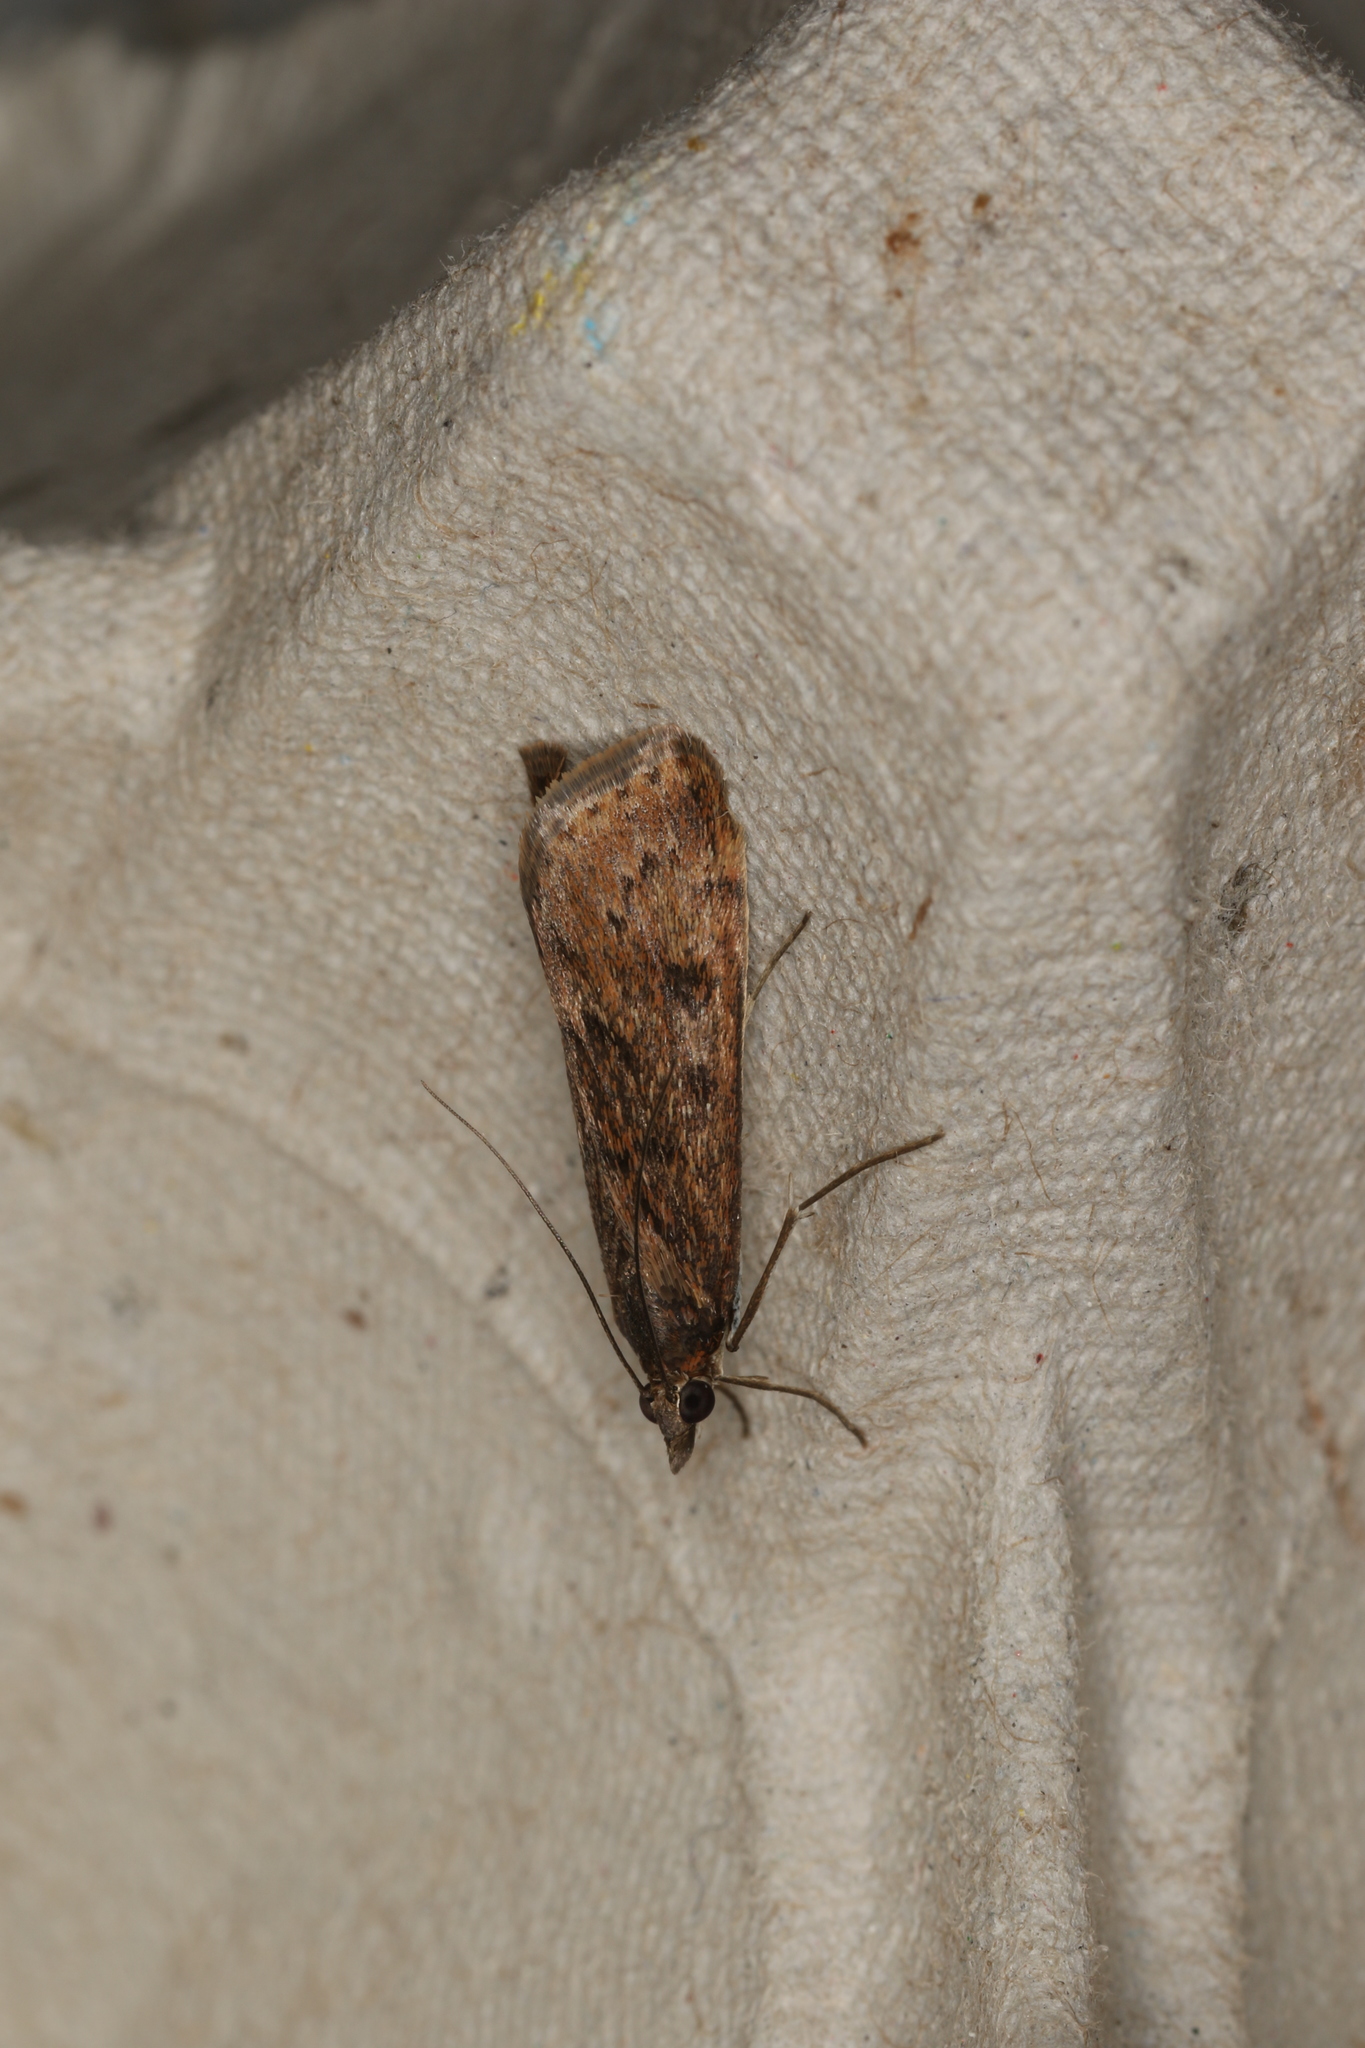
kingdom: Animalia
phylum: Arthropoda
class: Insecta
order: Lepidoptera
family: Crambidae
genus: Achyra
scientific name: Achyra affinitalis
